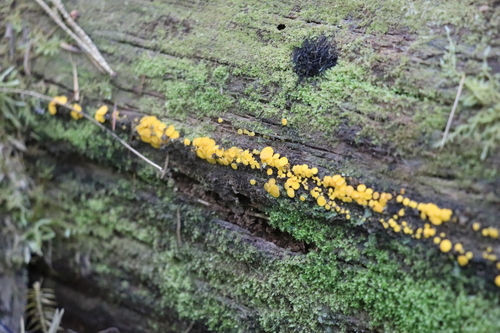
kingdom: Fungi
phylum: Ascomycota
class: Leotiomycetes
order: Helotiales
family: Pezizellaceae
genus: Calycina
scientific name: Calycina citrina
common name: Yellow fairy cups
